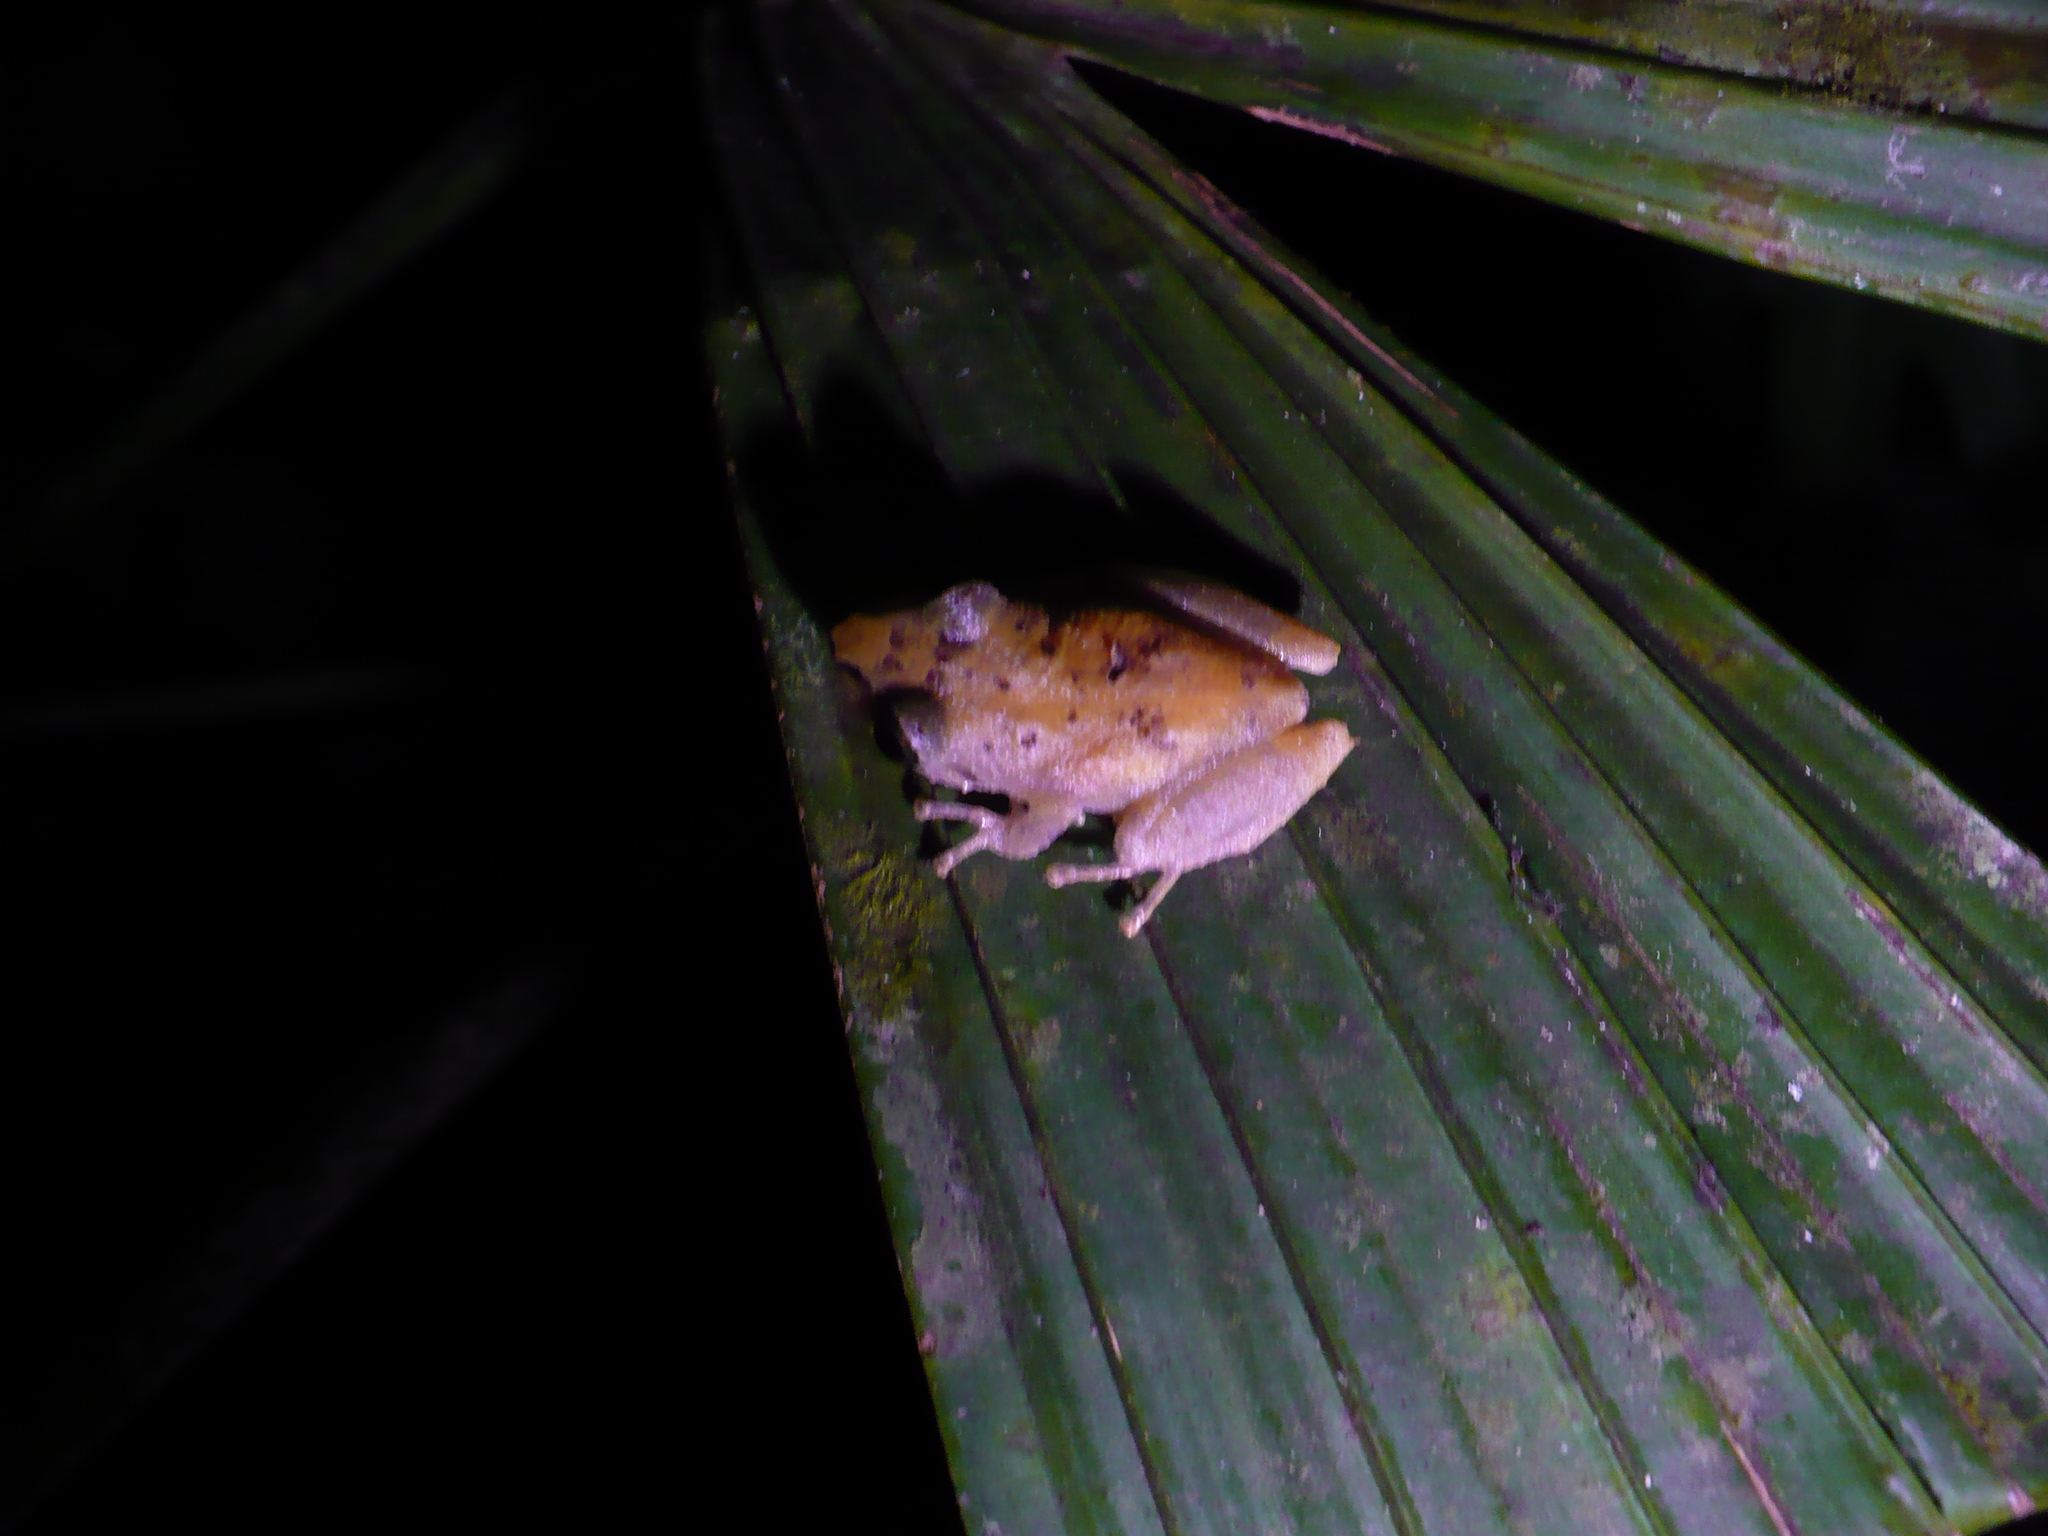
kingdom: Animalia
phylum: Chordata
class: Amphibia
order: Anura
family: Craugastoridae
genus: Pristimantis
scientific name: Pristimantis ridens
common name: Rio san juan robber frog
